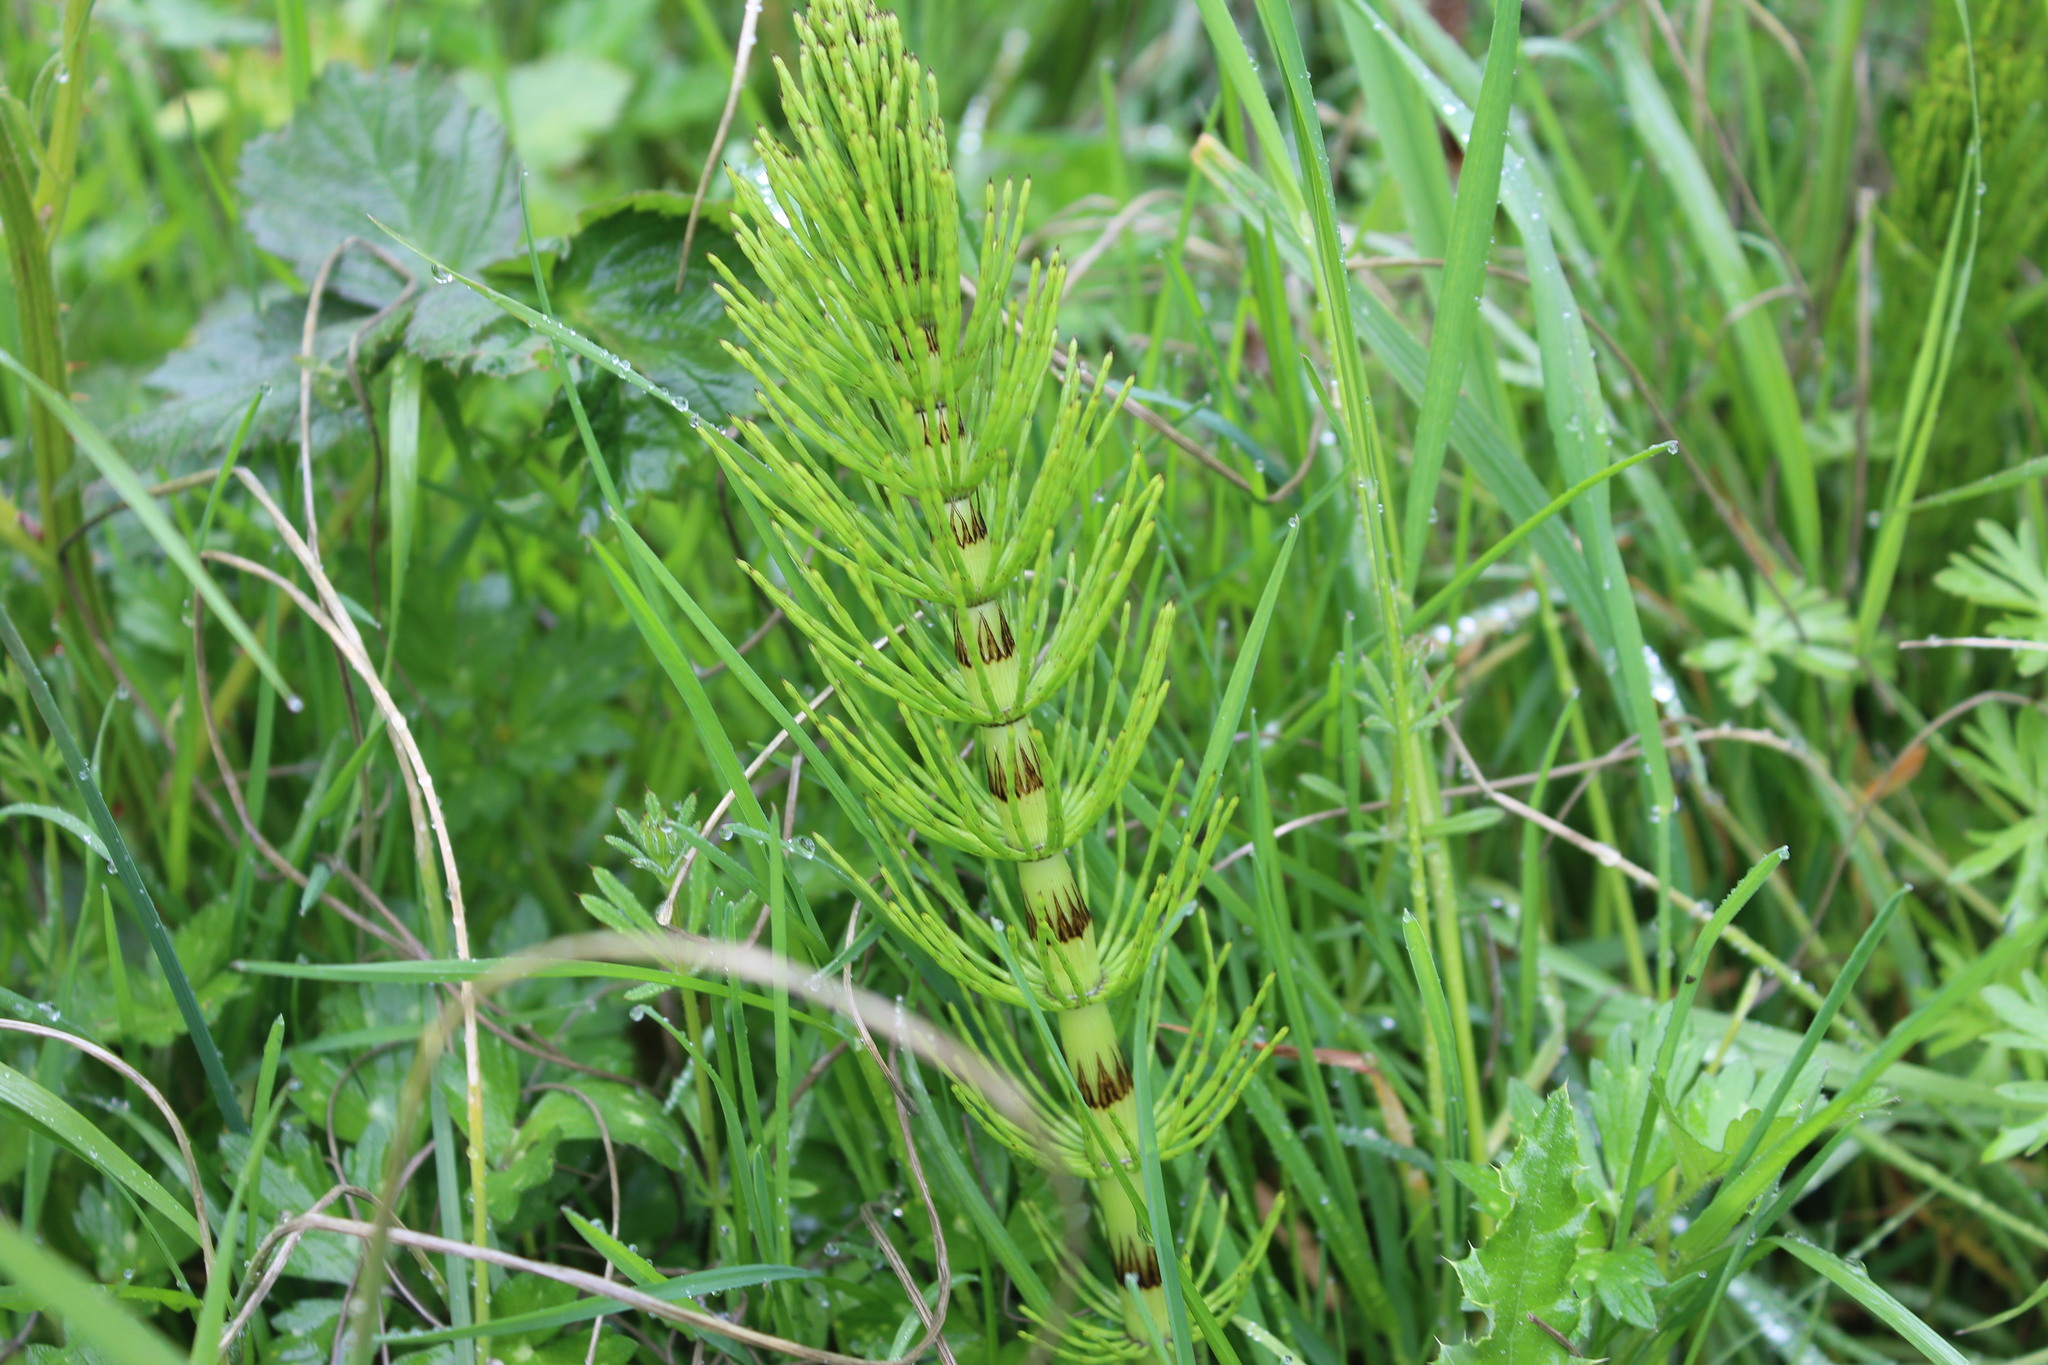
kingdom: Plantae
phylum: Tracheophyta
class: Polypodiopsida
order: Equisetales
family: Equisetaceae
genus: Equisetum
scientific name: Equisetum braunii
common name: Braun's horsetail
